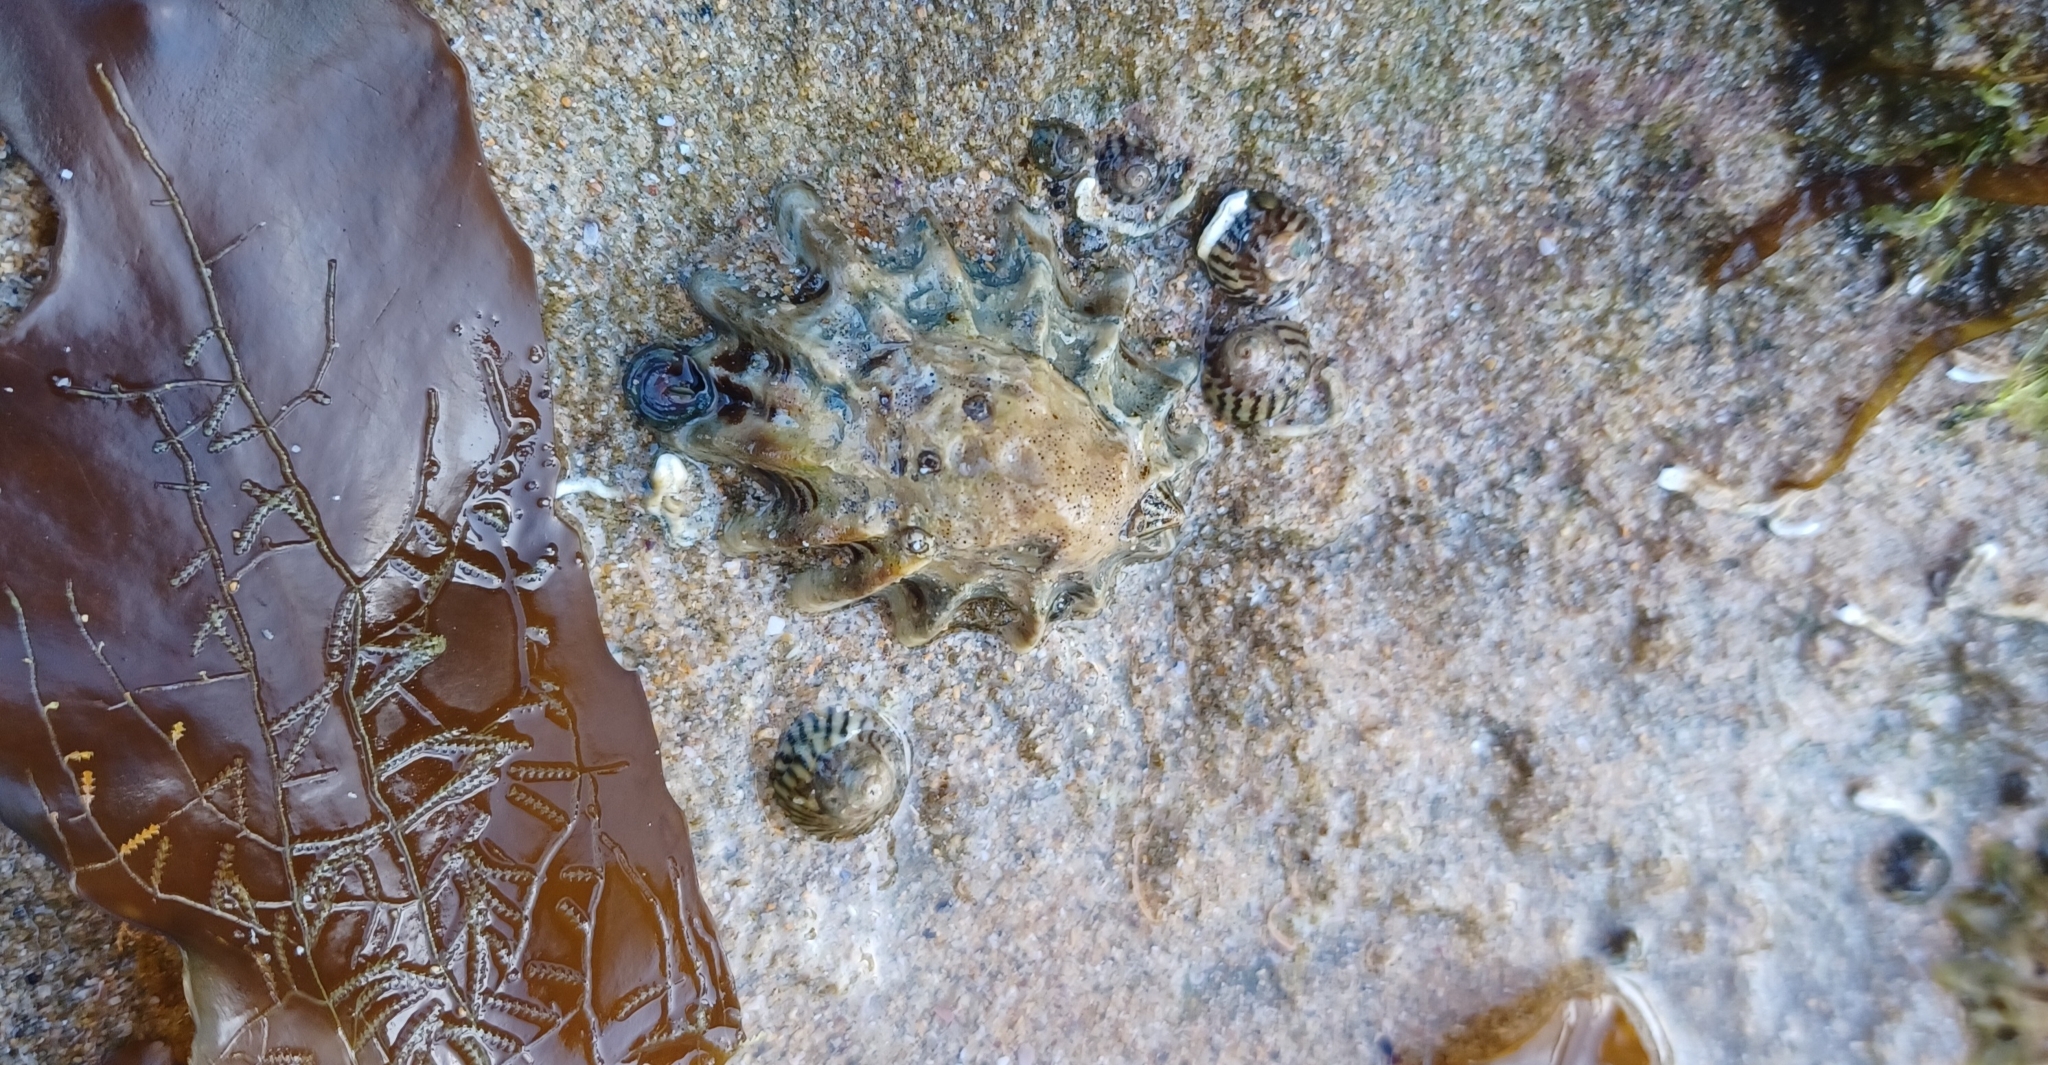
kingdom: Animalia
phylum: Mollusca
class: Gastropoda
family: Lottiidae
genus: Patelloida
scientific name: Patelloida alticostata
